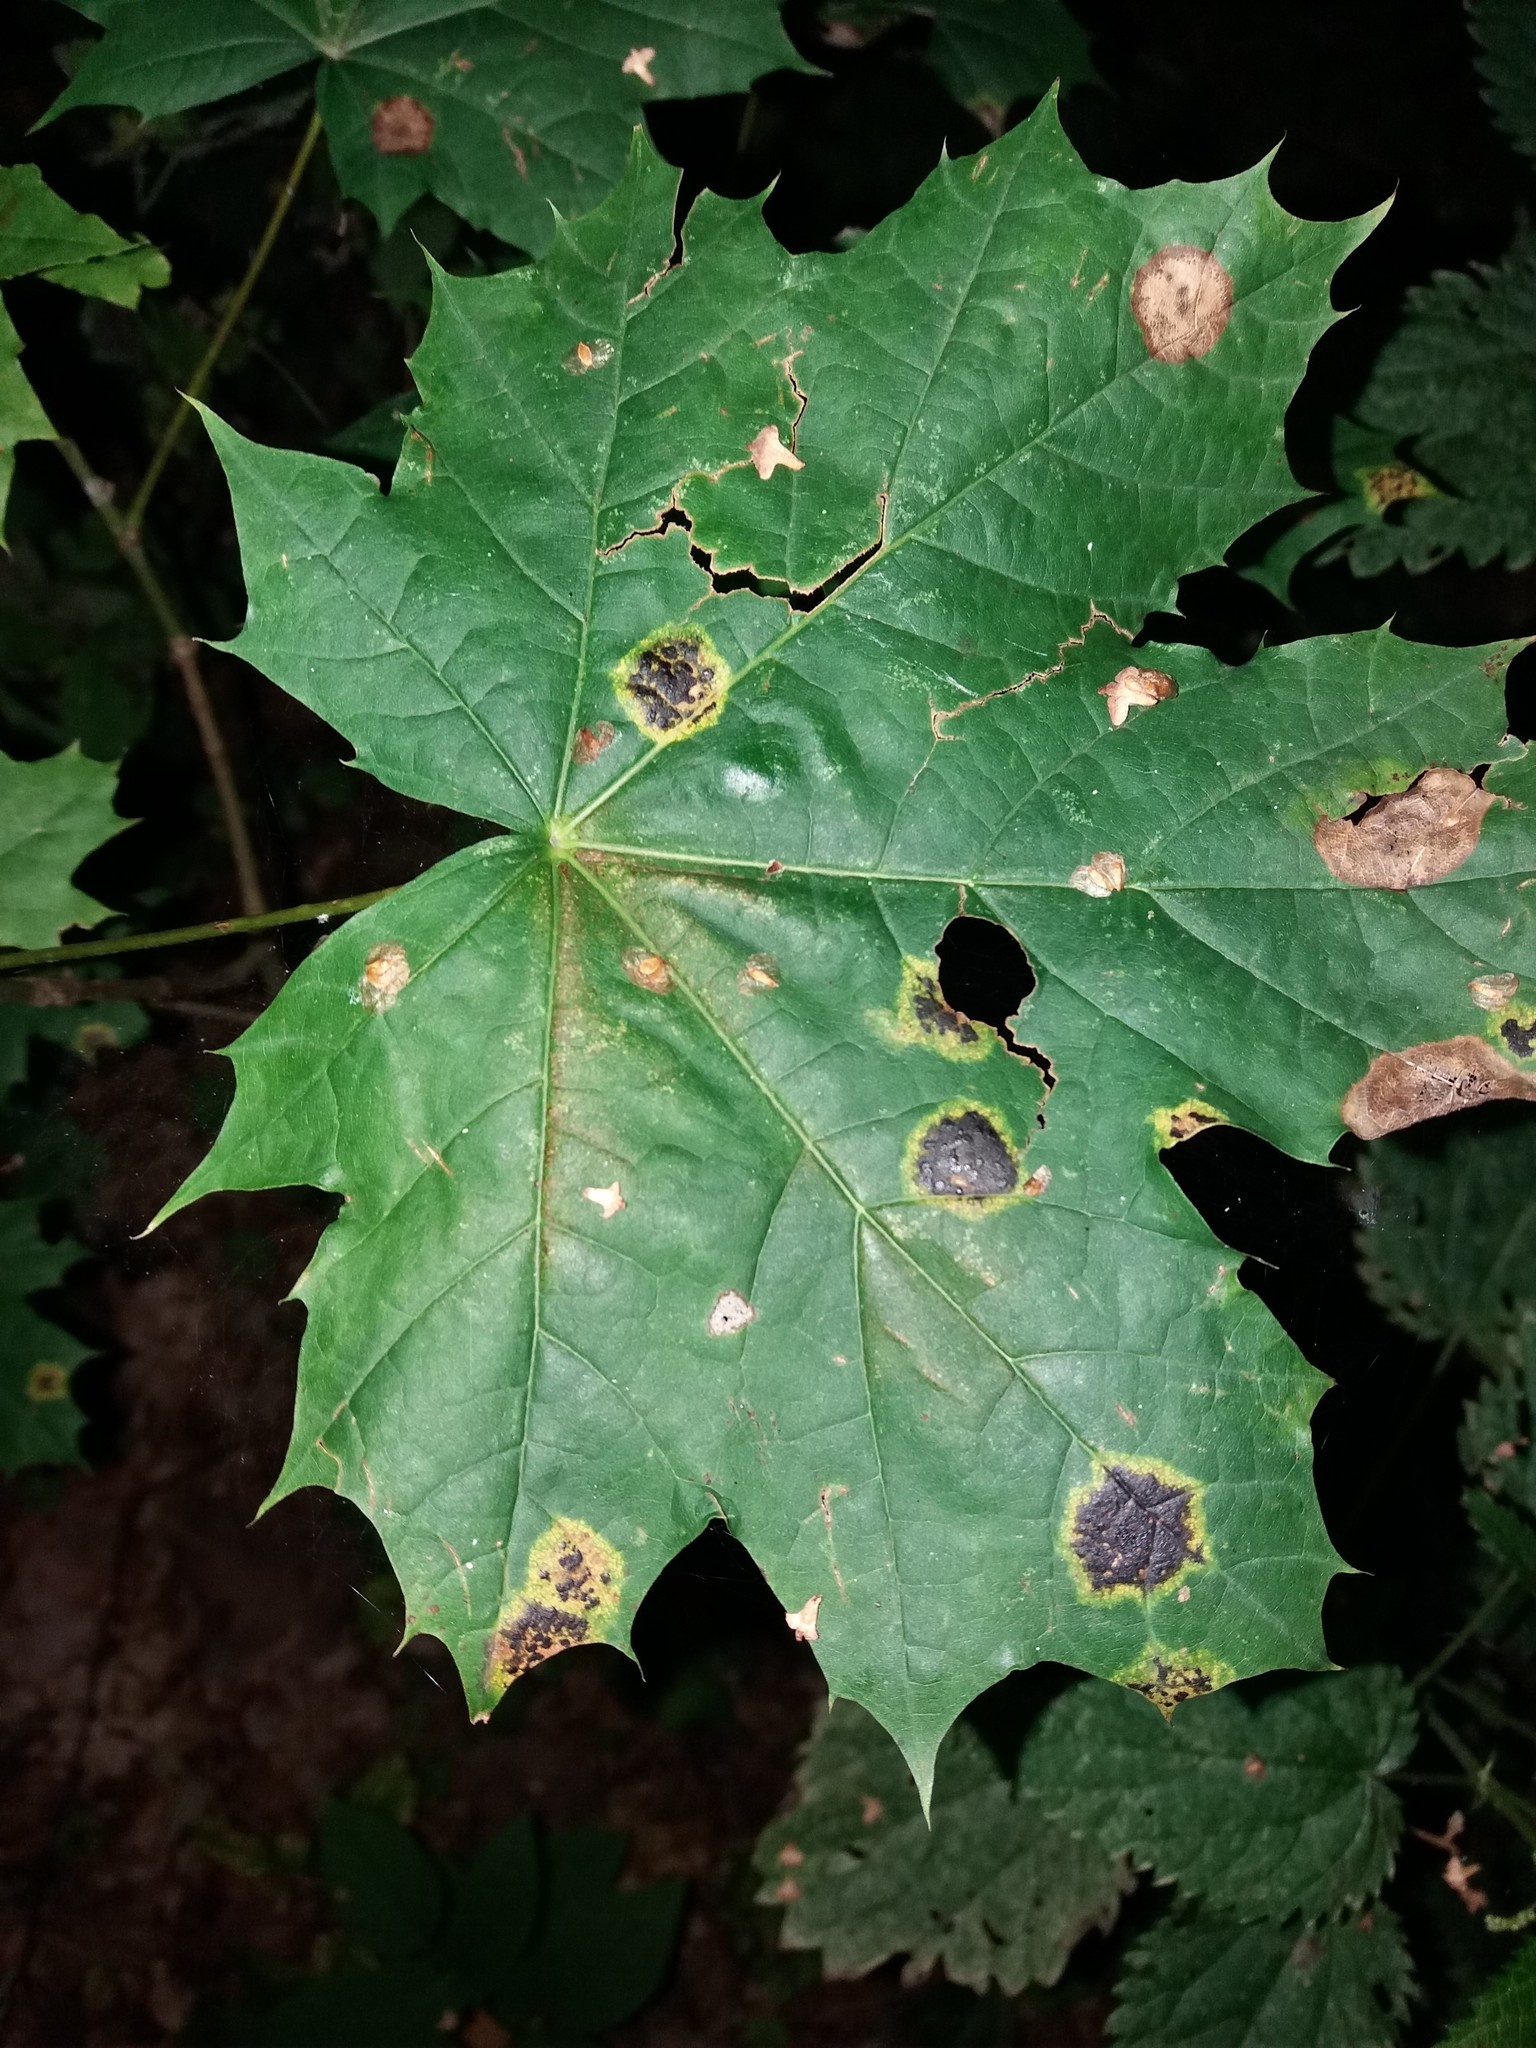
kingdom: Plantae
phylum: Tracheophyta
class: Magnoliopsida
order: Sapindales
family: Sapindaceae
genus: Acer
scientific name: Acer platanoides
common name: Norway maple
